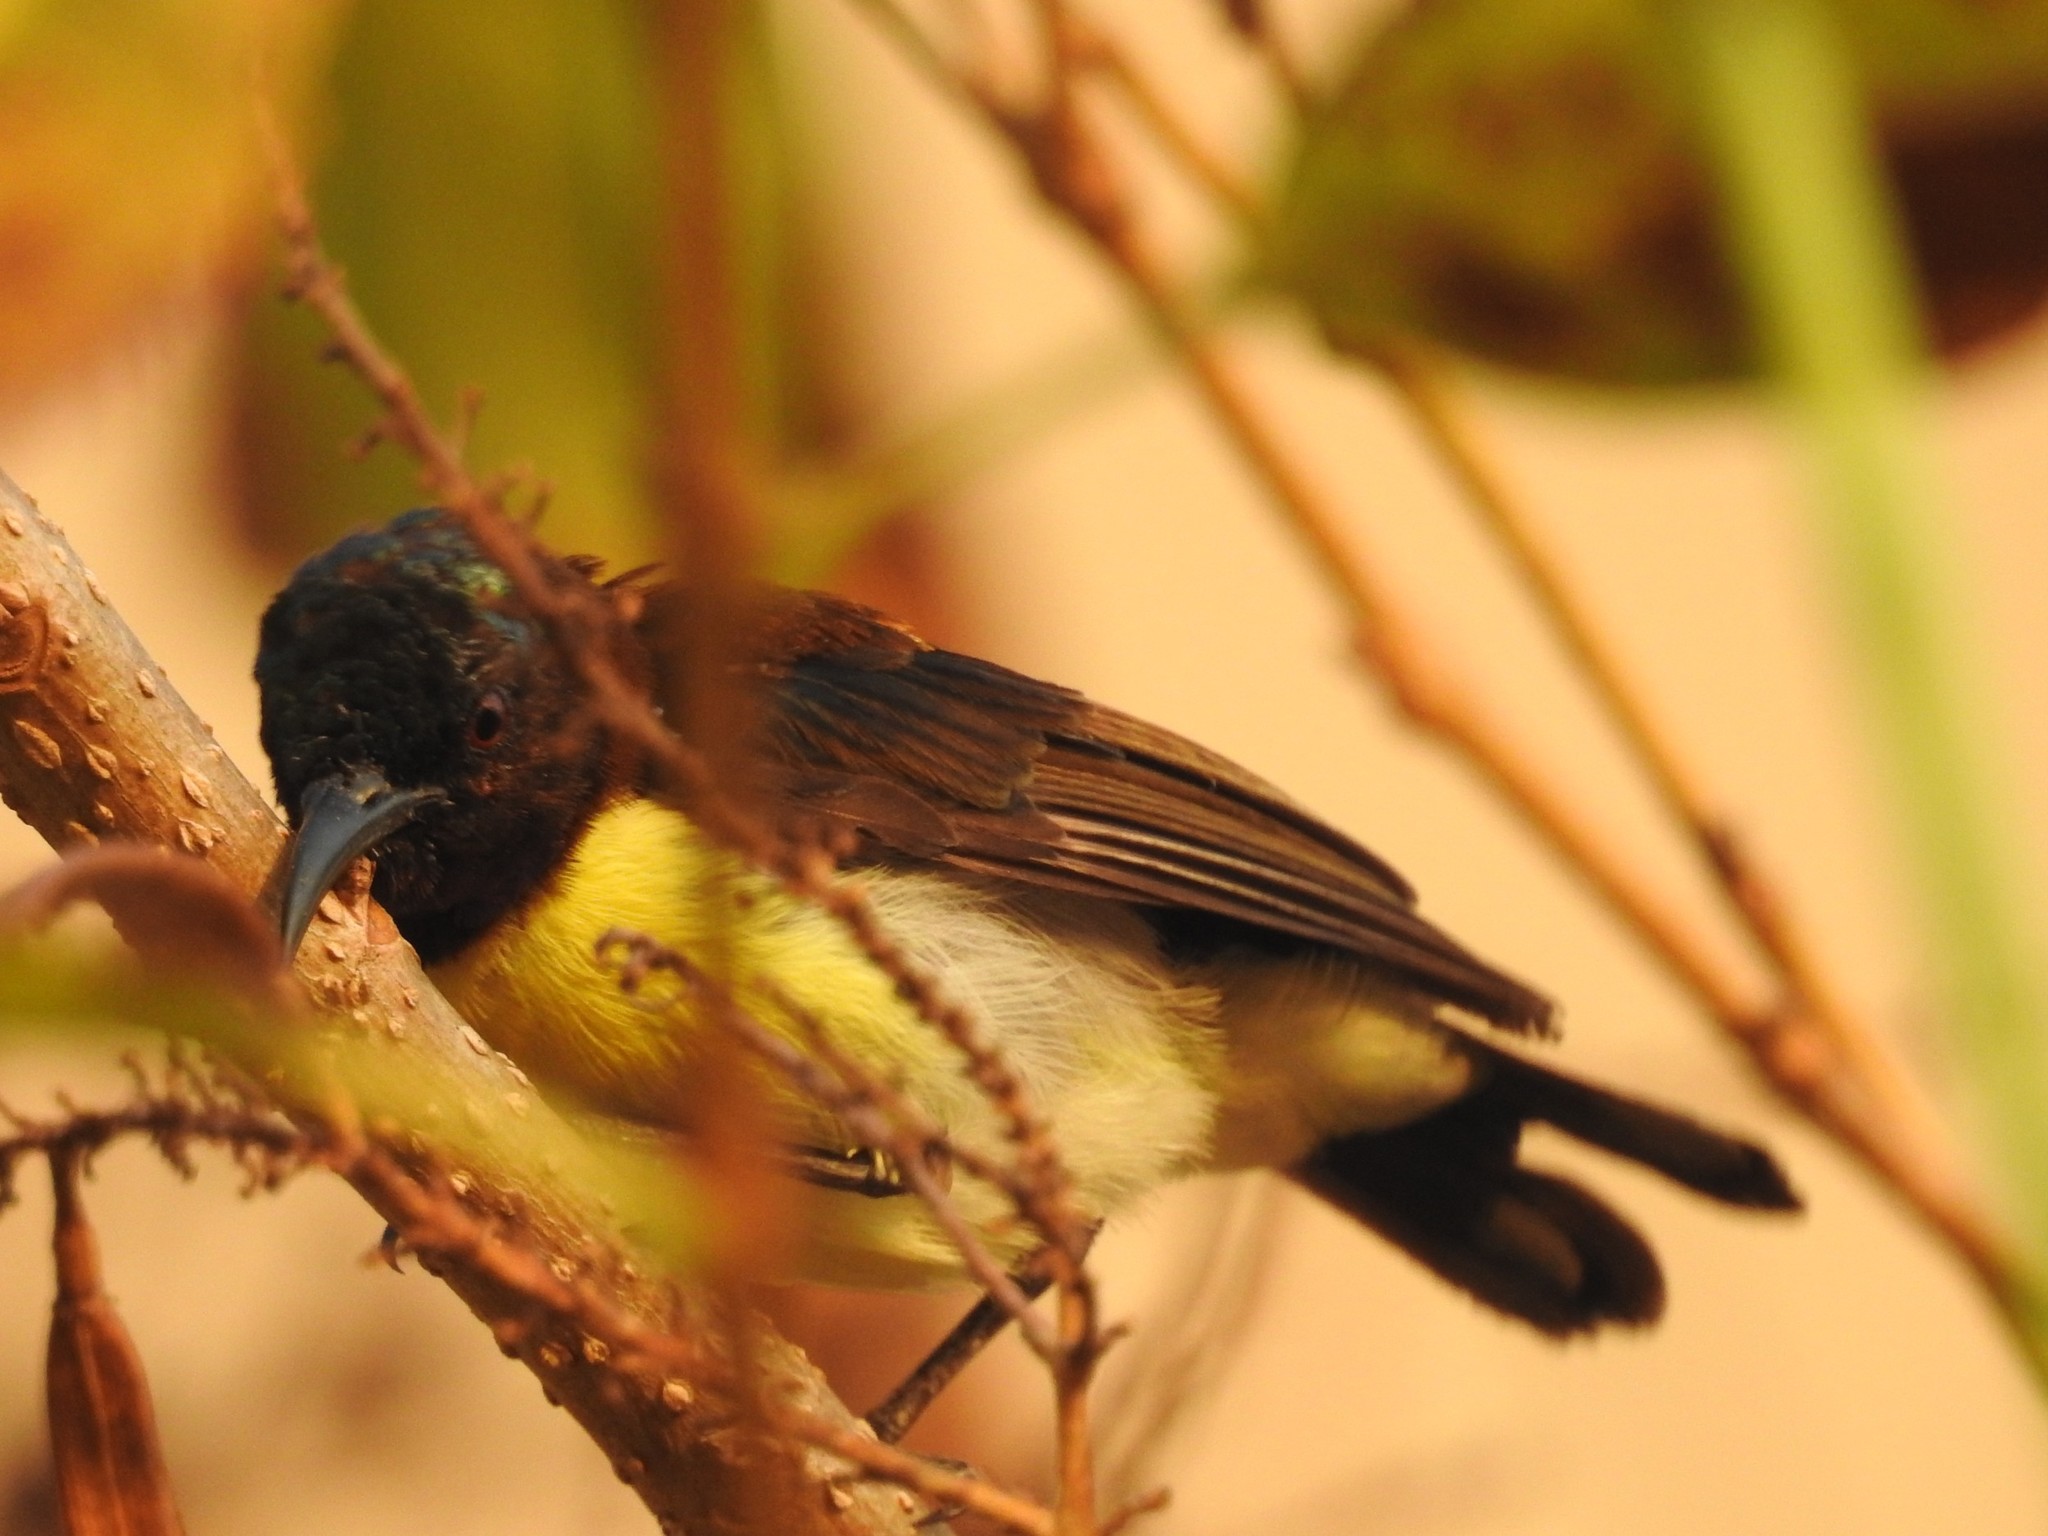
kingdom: Animalia
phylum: Chordata
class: Aves
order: Passeriformes
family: Nectariniidae
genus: Leptocoma
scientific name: Leptocoma zeylonica
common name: Purple-rumped sunbird
